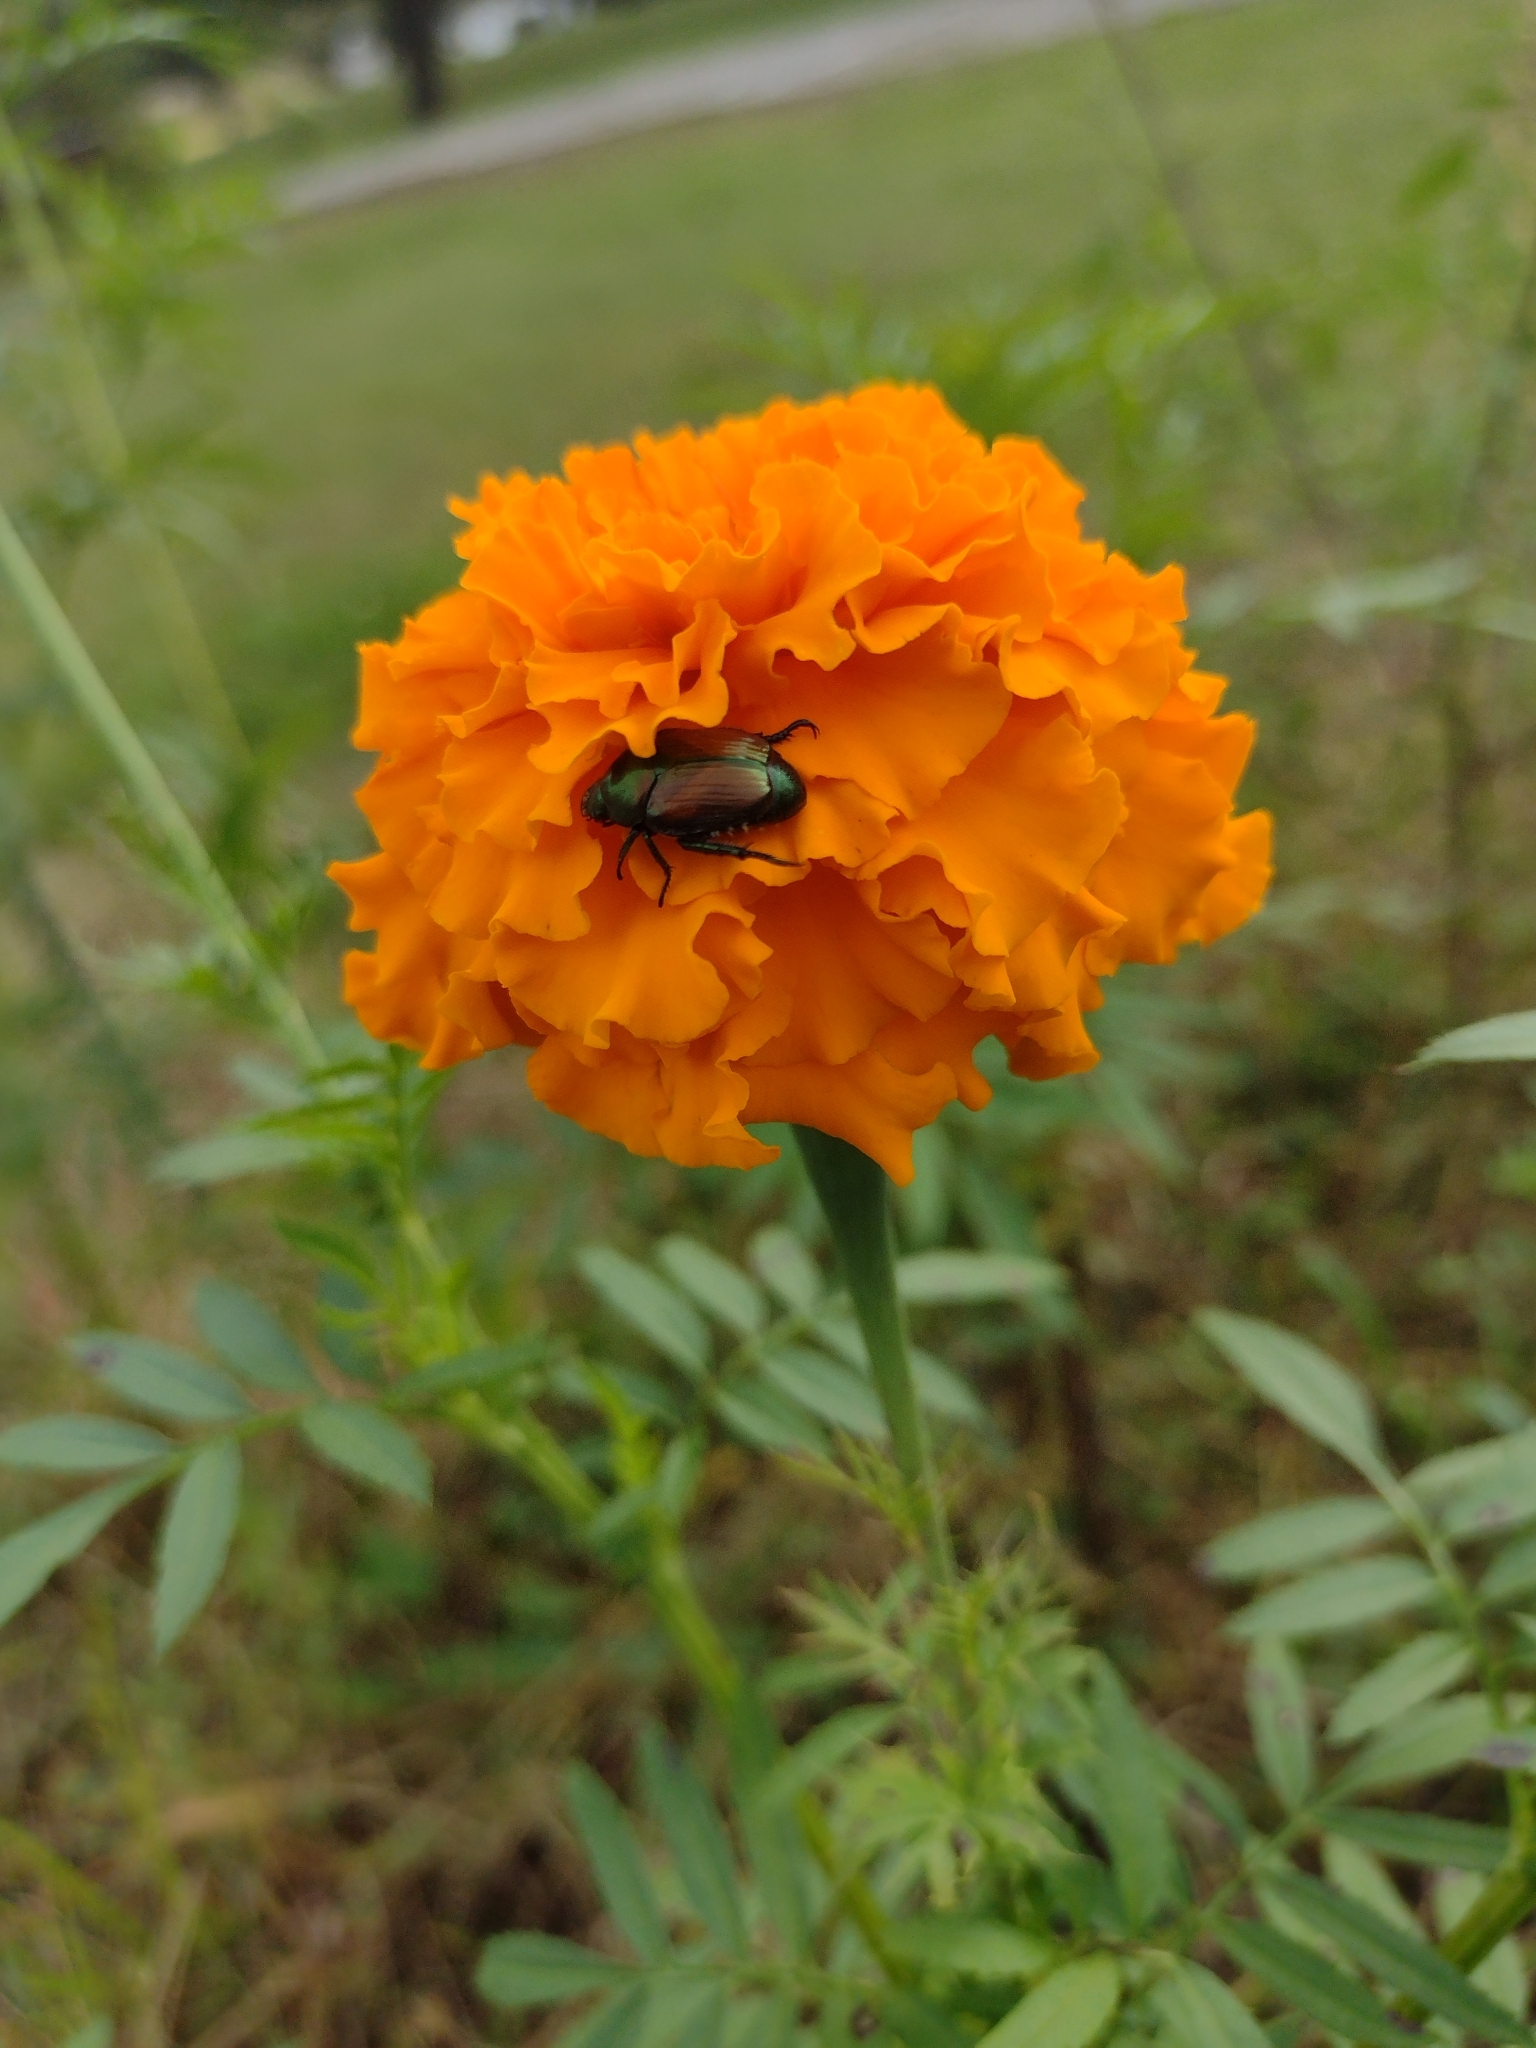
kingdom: Animalia
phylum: Arthropoda
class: Insecta
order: Coleoptera
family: Scarabaeidae
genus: Popillia
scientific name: Popillia japonica
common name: Japanese beetle
